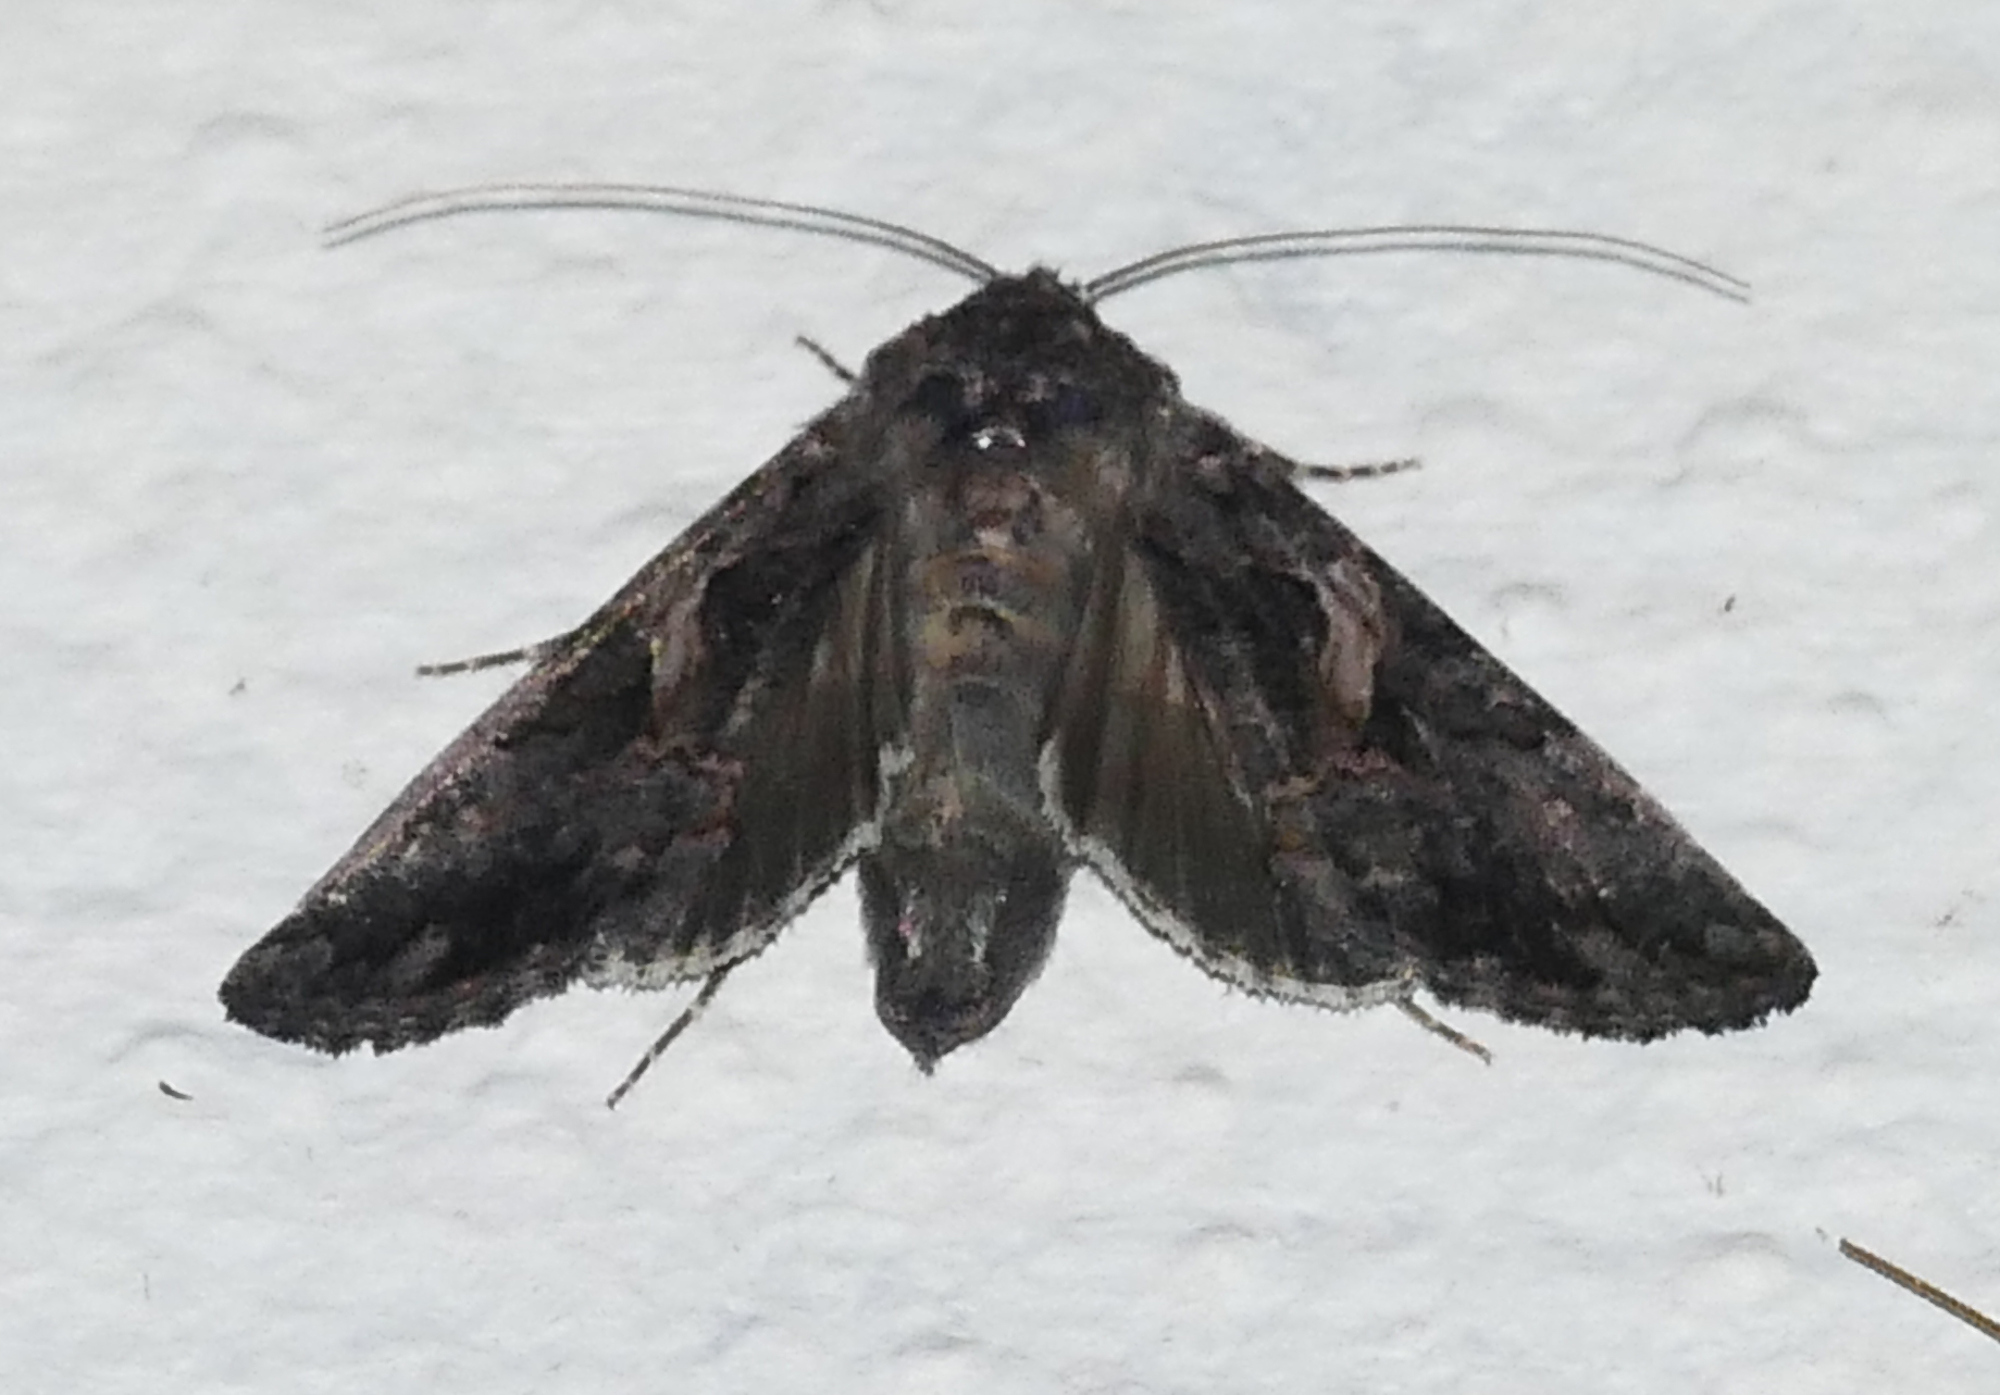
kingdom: Animalia
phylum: Arthropoda
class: Insecta
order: Lepidoptera
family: Noctuidae
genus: Ctenoplusia
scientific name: Ctenoplusia oxygramma
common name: Sharp-stigma looper moth
